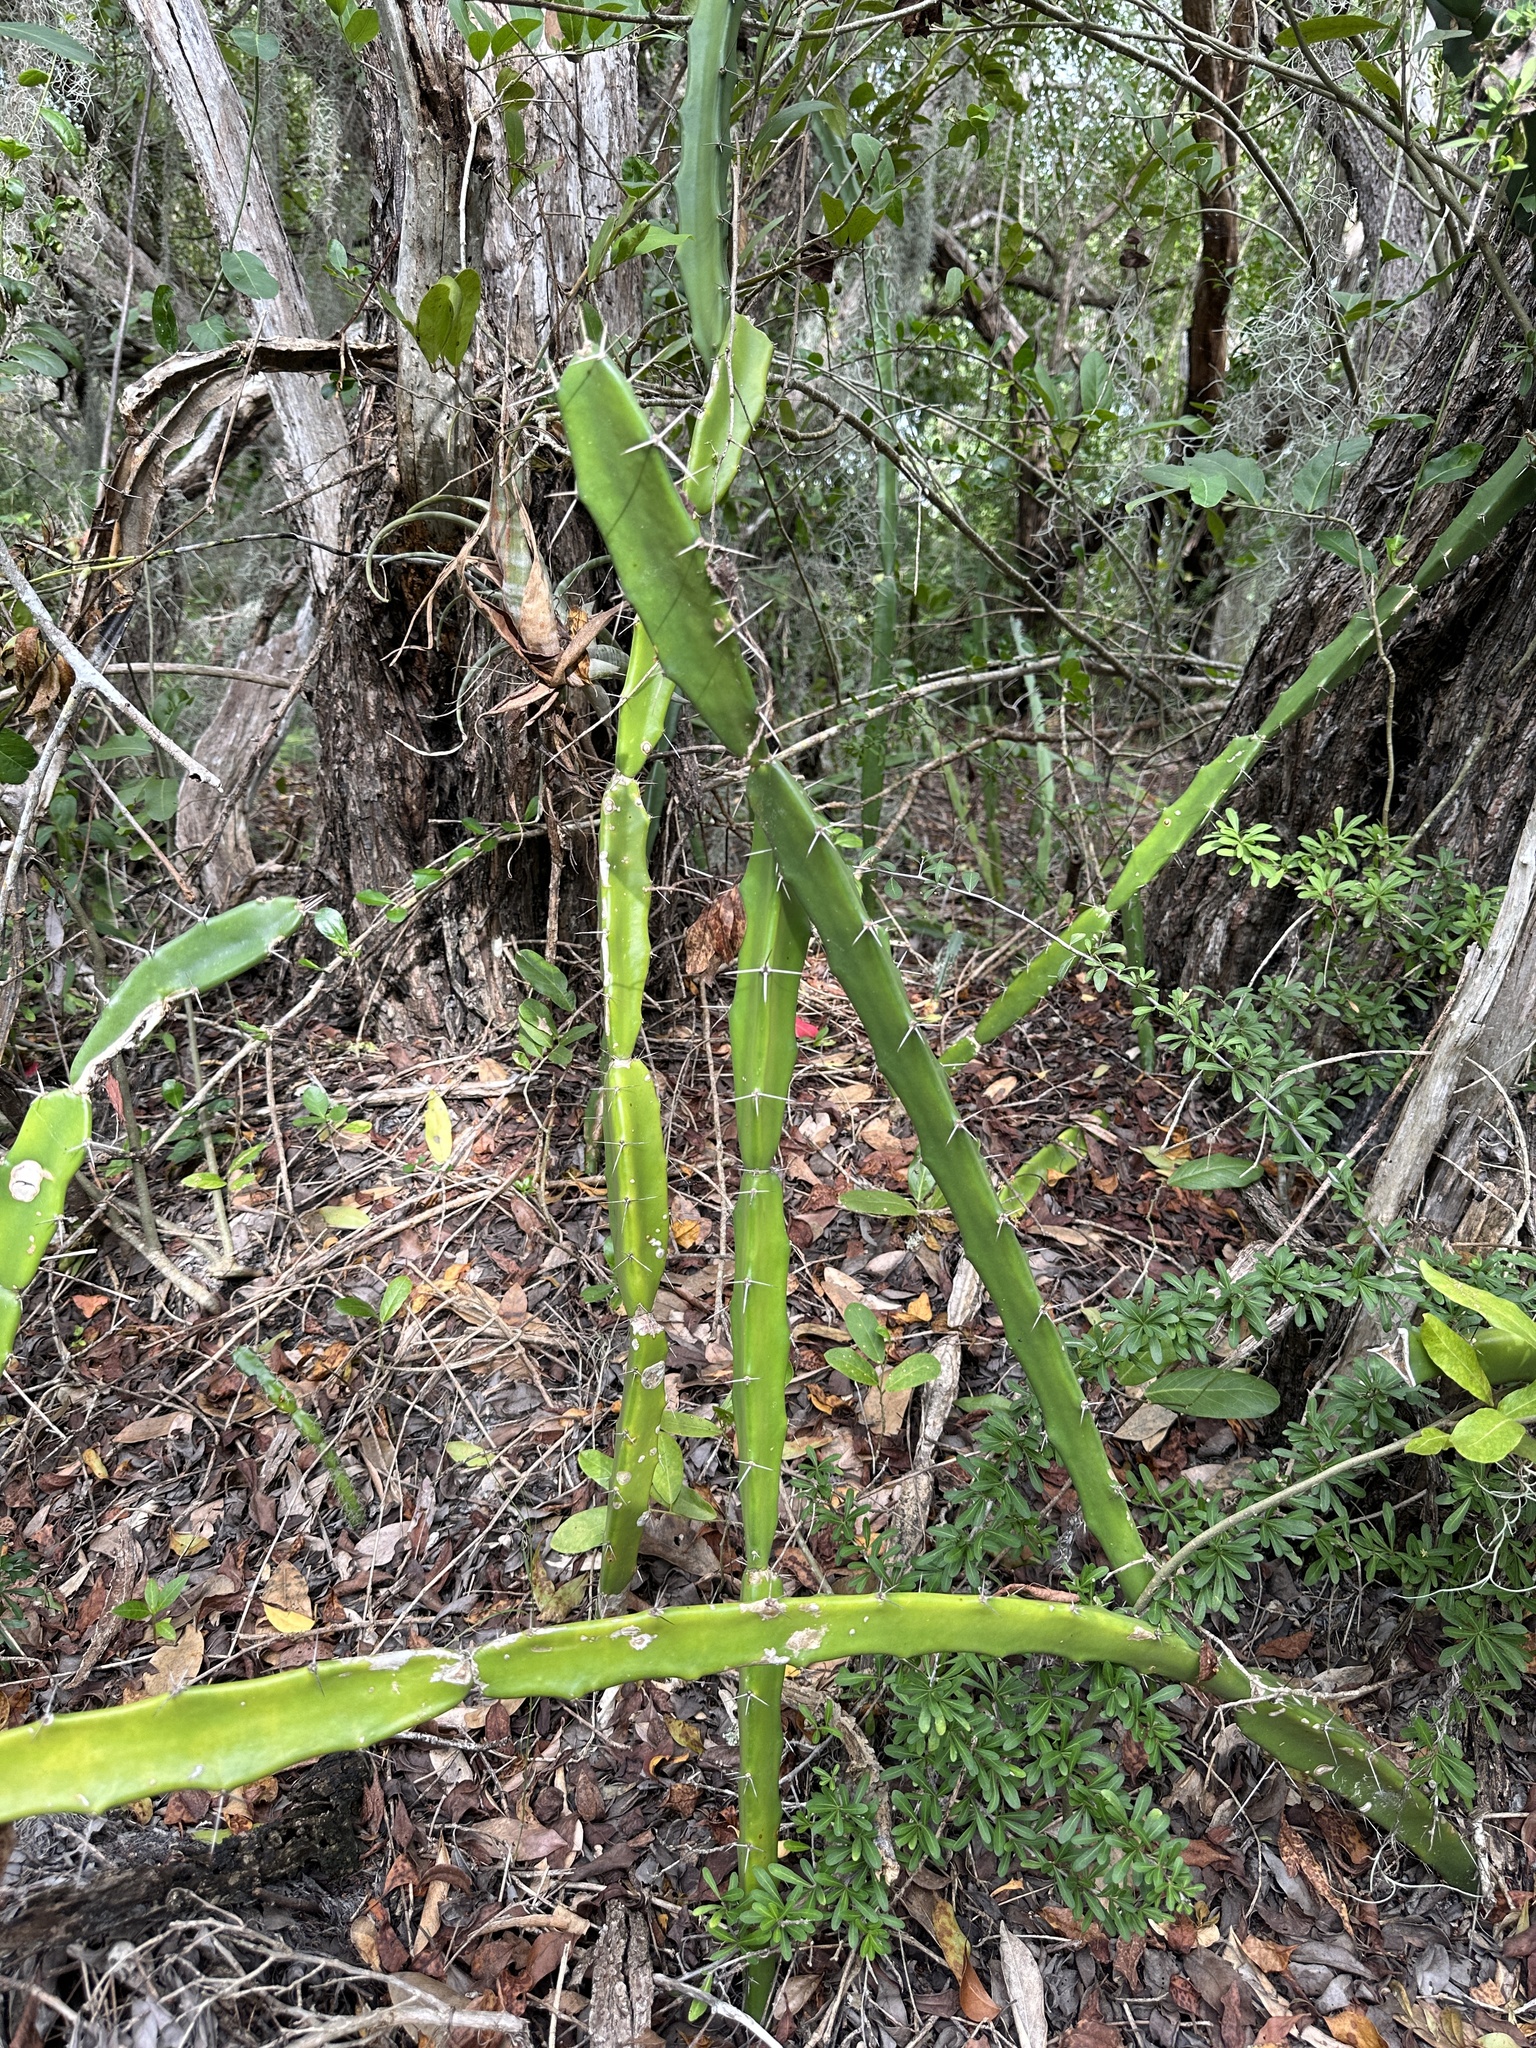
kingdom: Plantae
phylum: Tracheophyta
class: Magnoliopsida
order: Caryophyllales
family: Cactaceae
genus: Acanthocereus
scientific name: Acanthocereus tetragonus
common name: Triangle cactus
